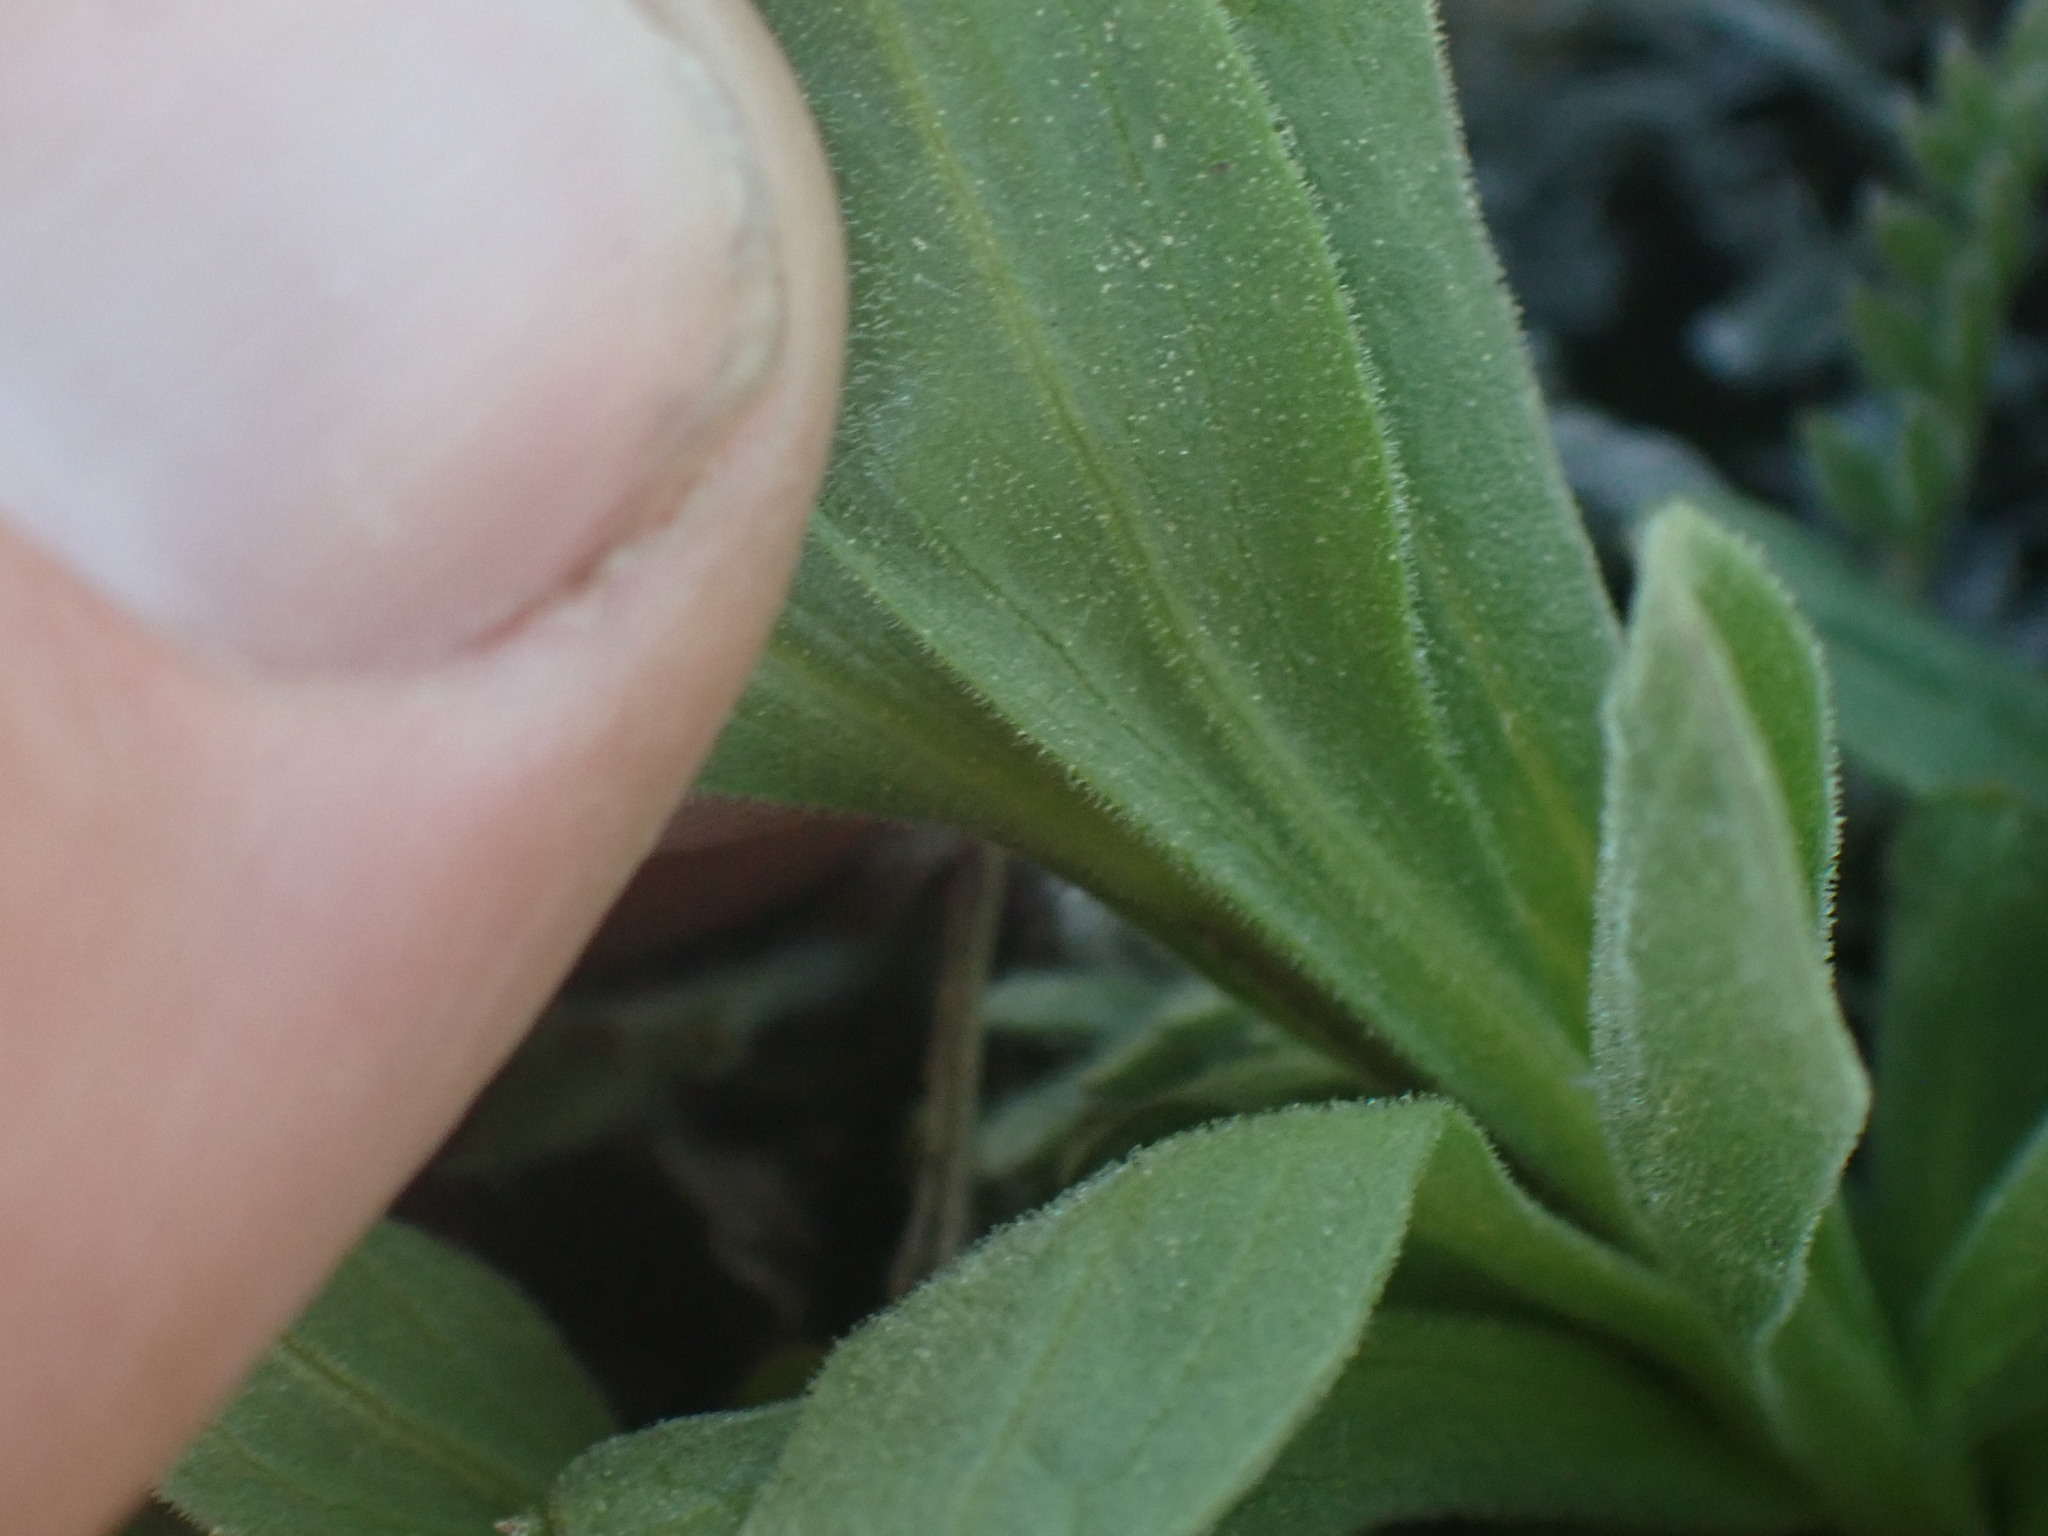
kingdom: Plantae
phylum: Tracheophyta
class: Magnoliopsida
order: Asterales
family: Asteraceae
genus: Tonestus
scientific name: Tonestus lyallii
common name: Lyall's goldenweed
